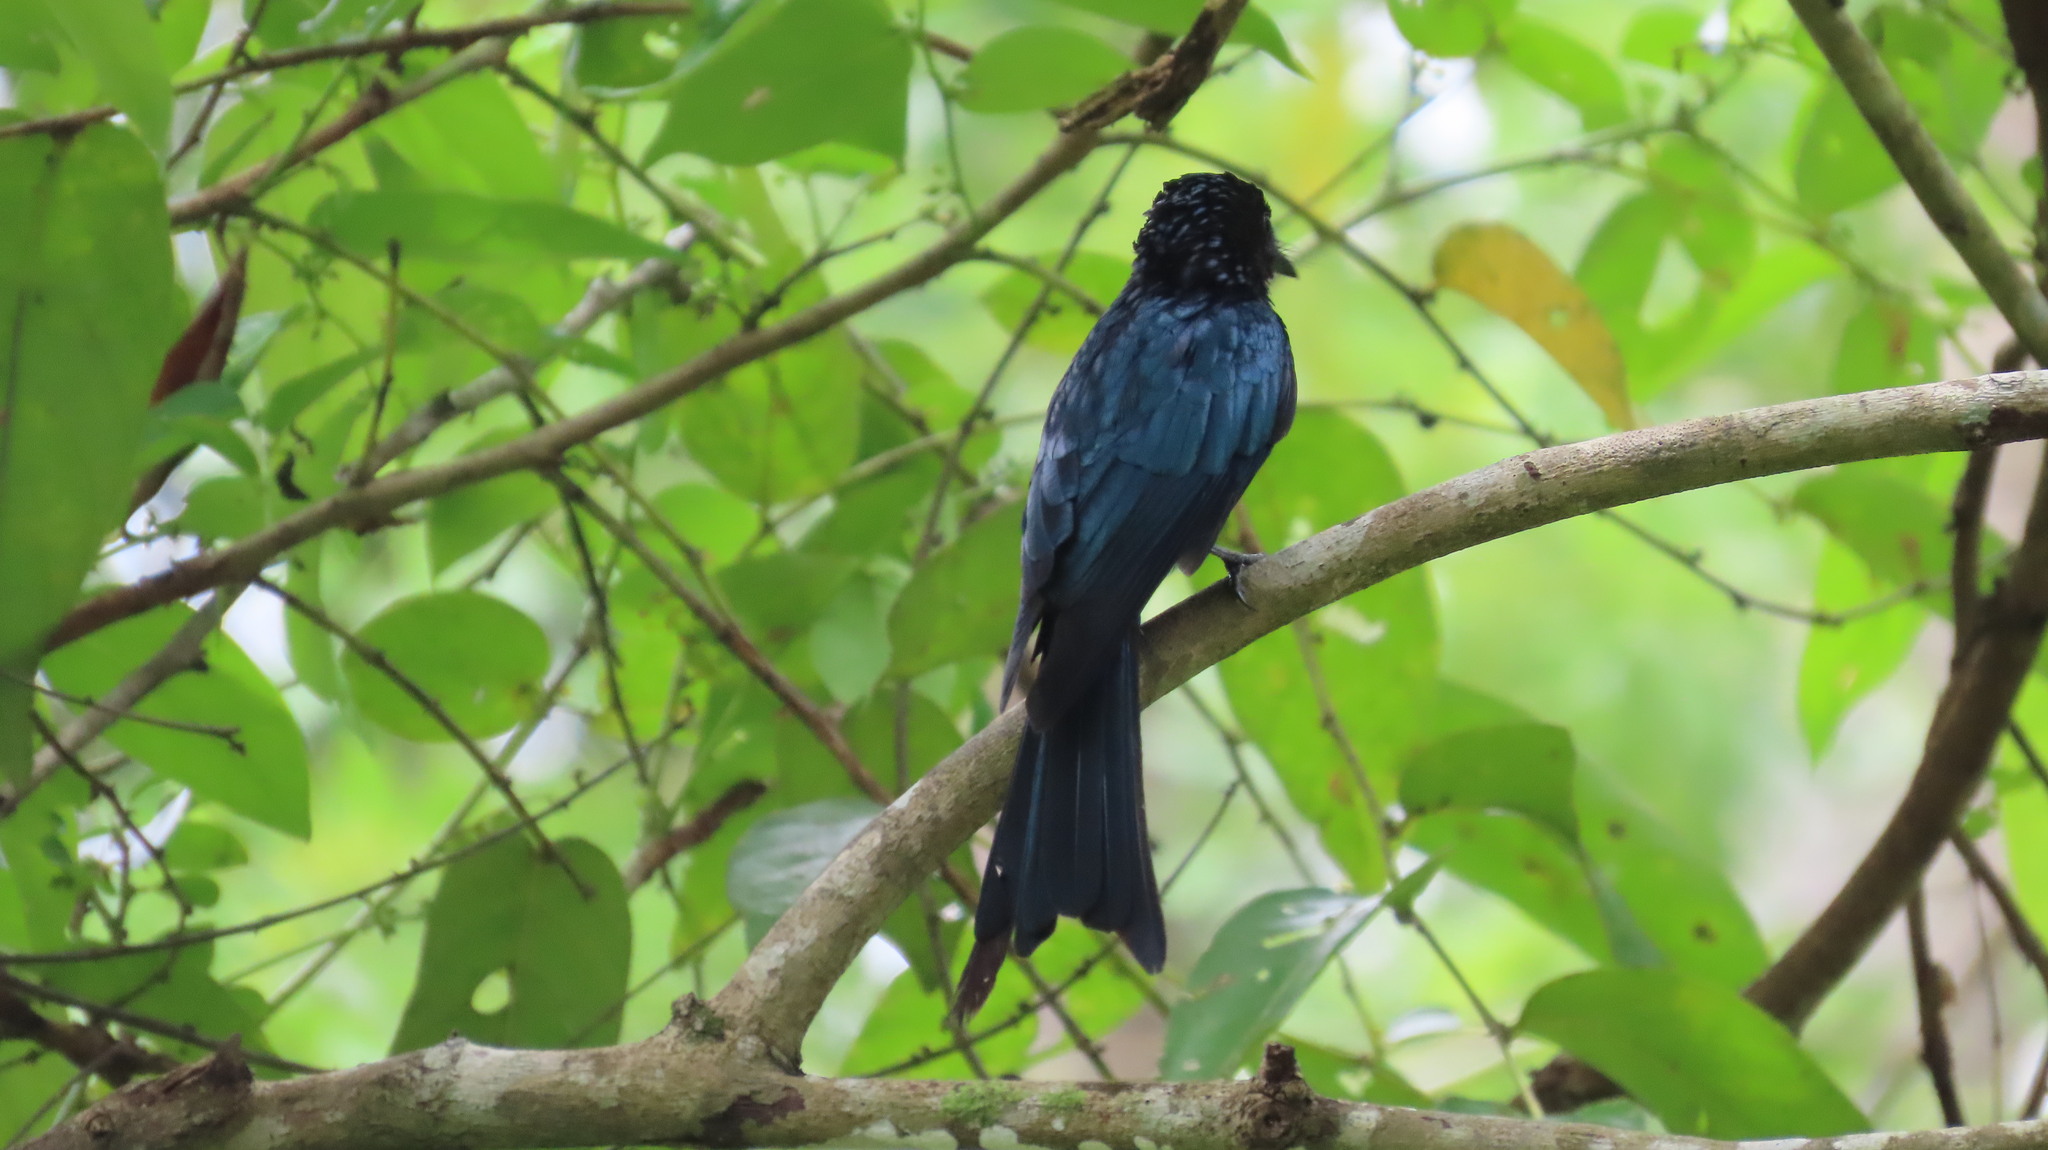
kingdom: Animalia
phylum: Chordata
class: Aves
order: Passeriformes
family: Dicruridae
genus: Dicrurus
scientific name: Dicrurus aeneus
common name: Bronzed drongo
